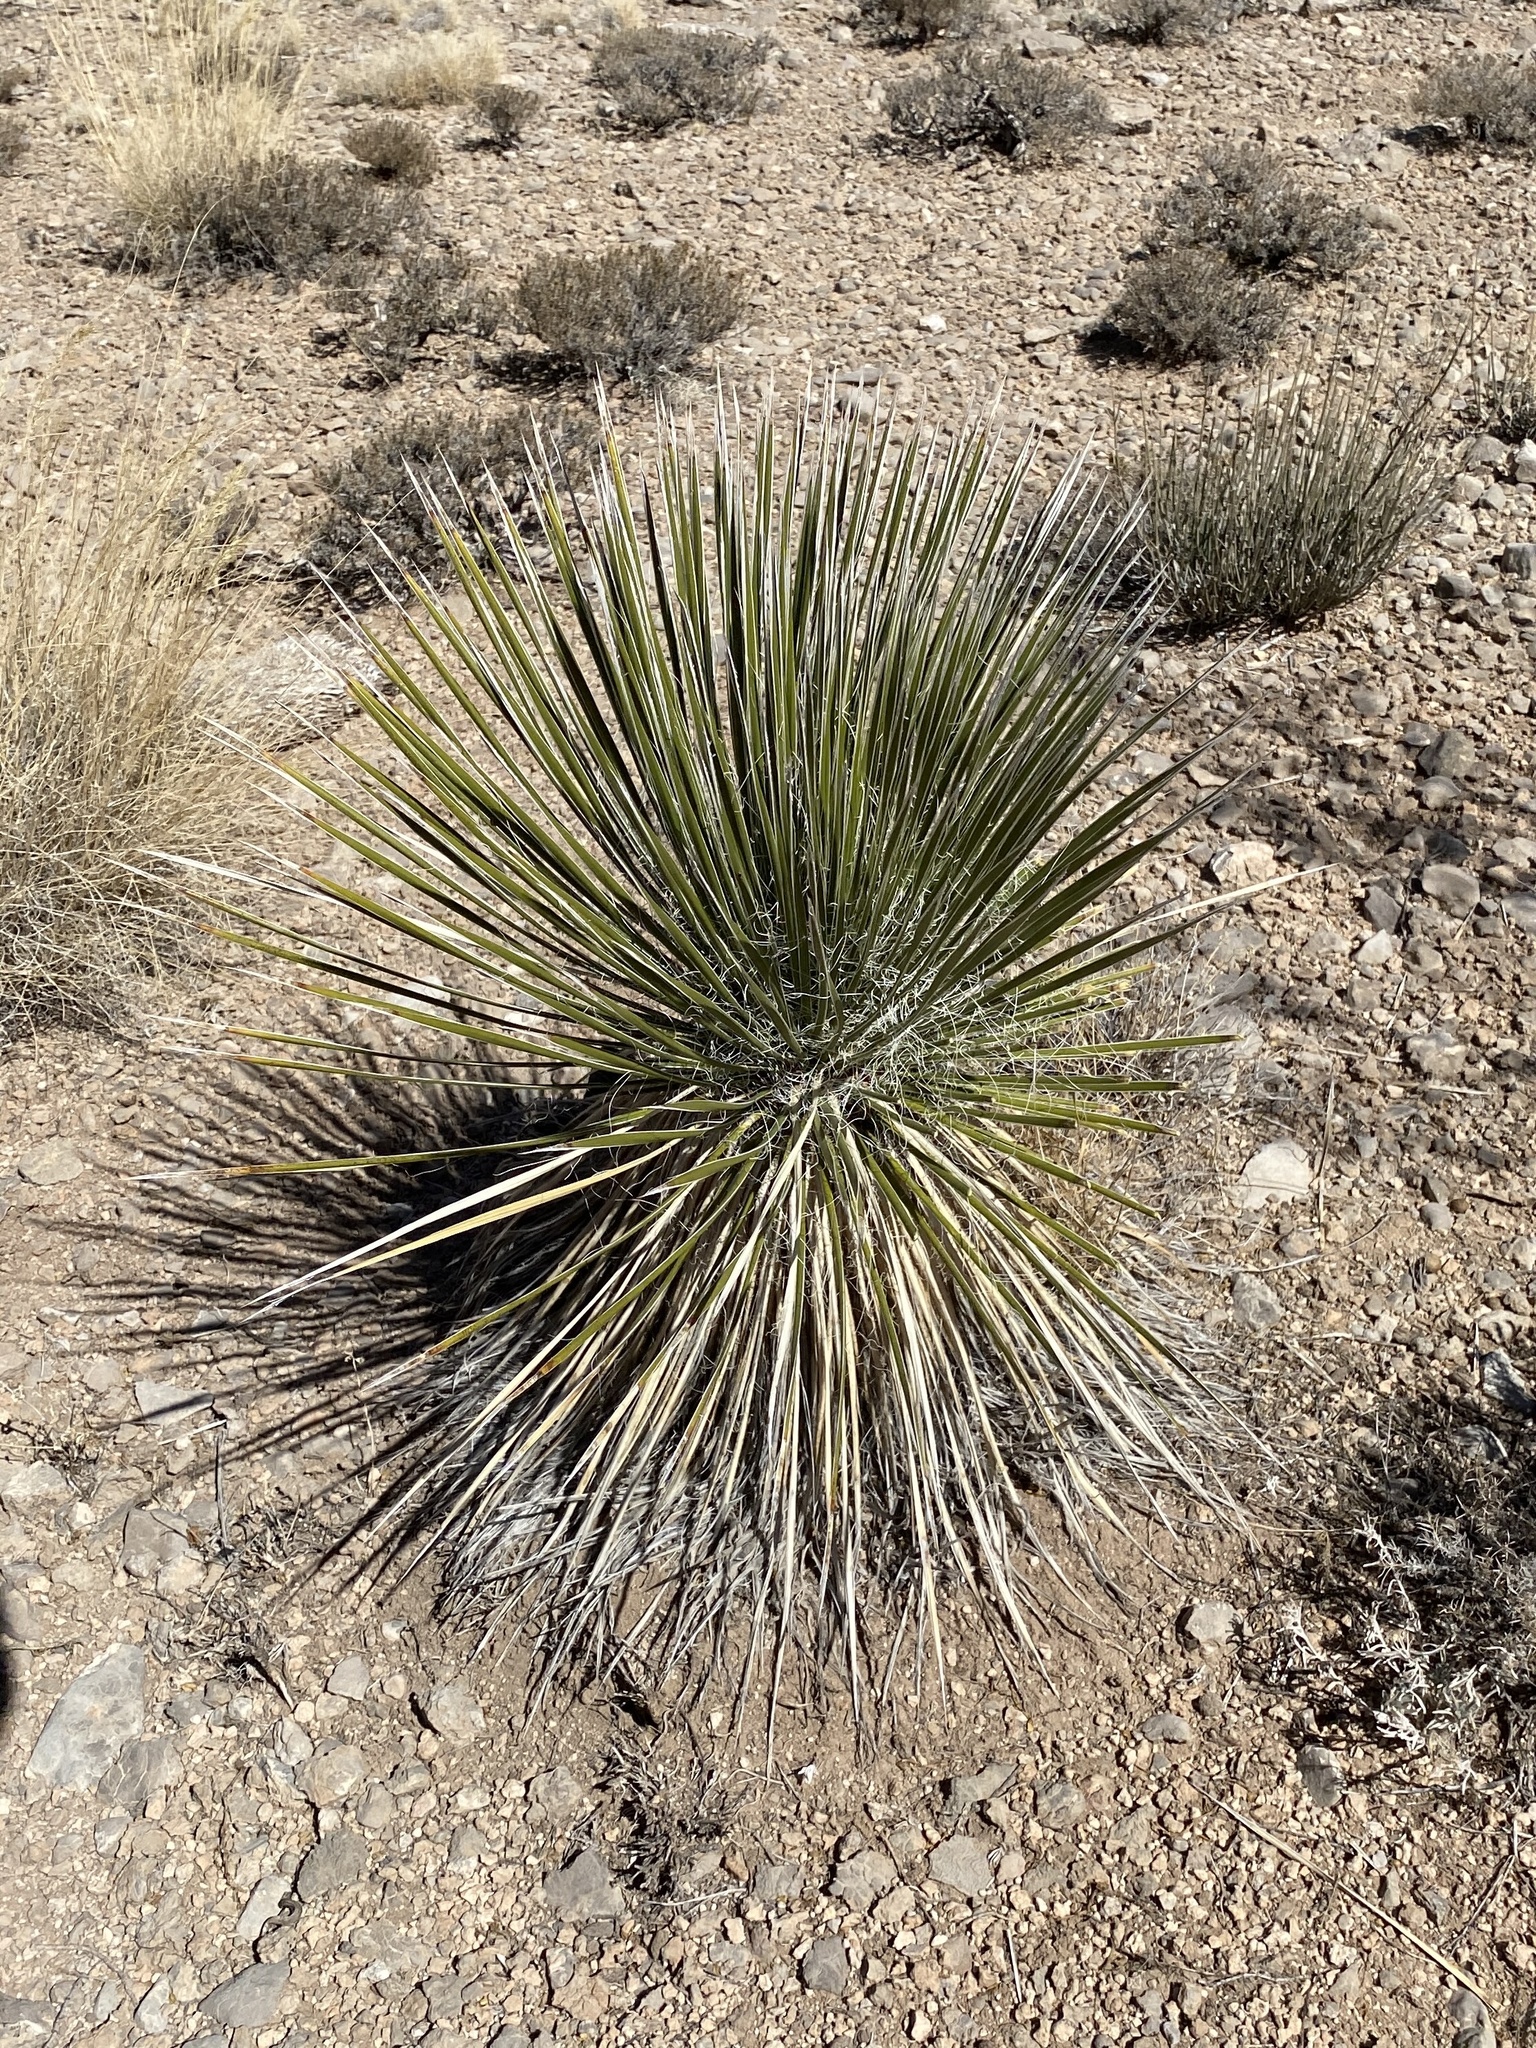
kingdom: Plantae
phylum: Tracheophyta
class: Liliopsida
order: Asparagales
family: Asparagaceae
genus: Yucca
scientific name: Yucca elata
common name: Palmella
